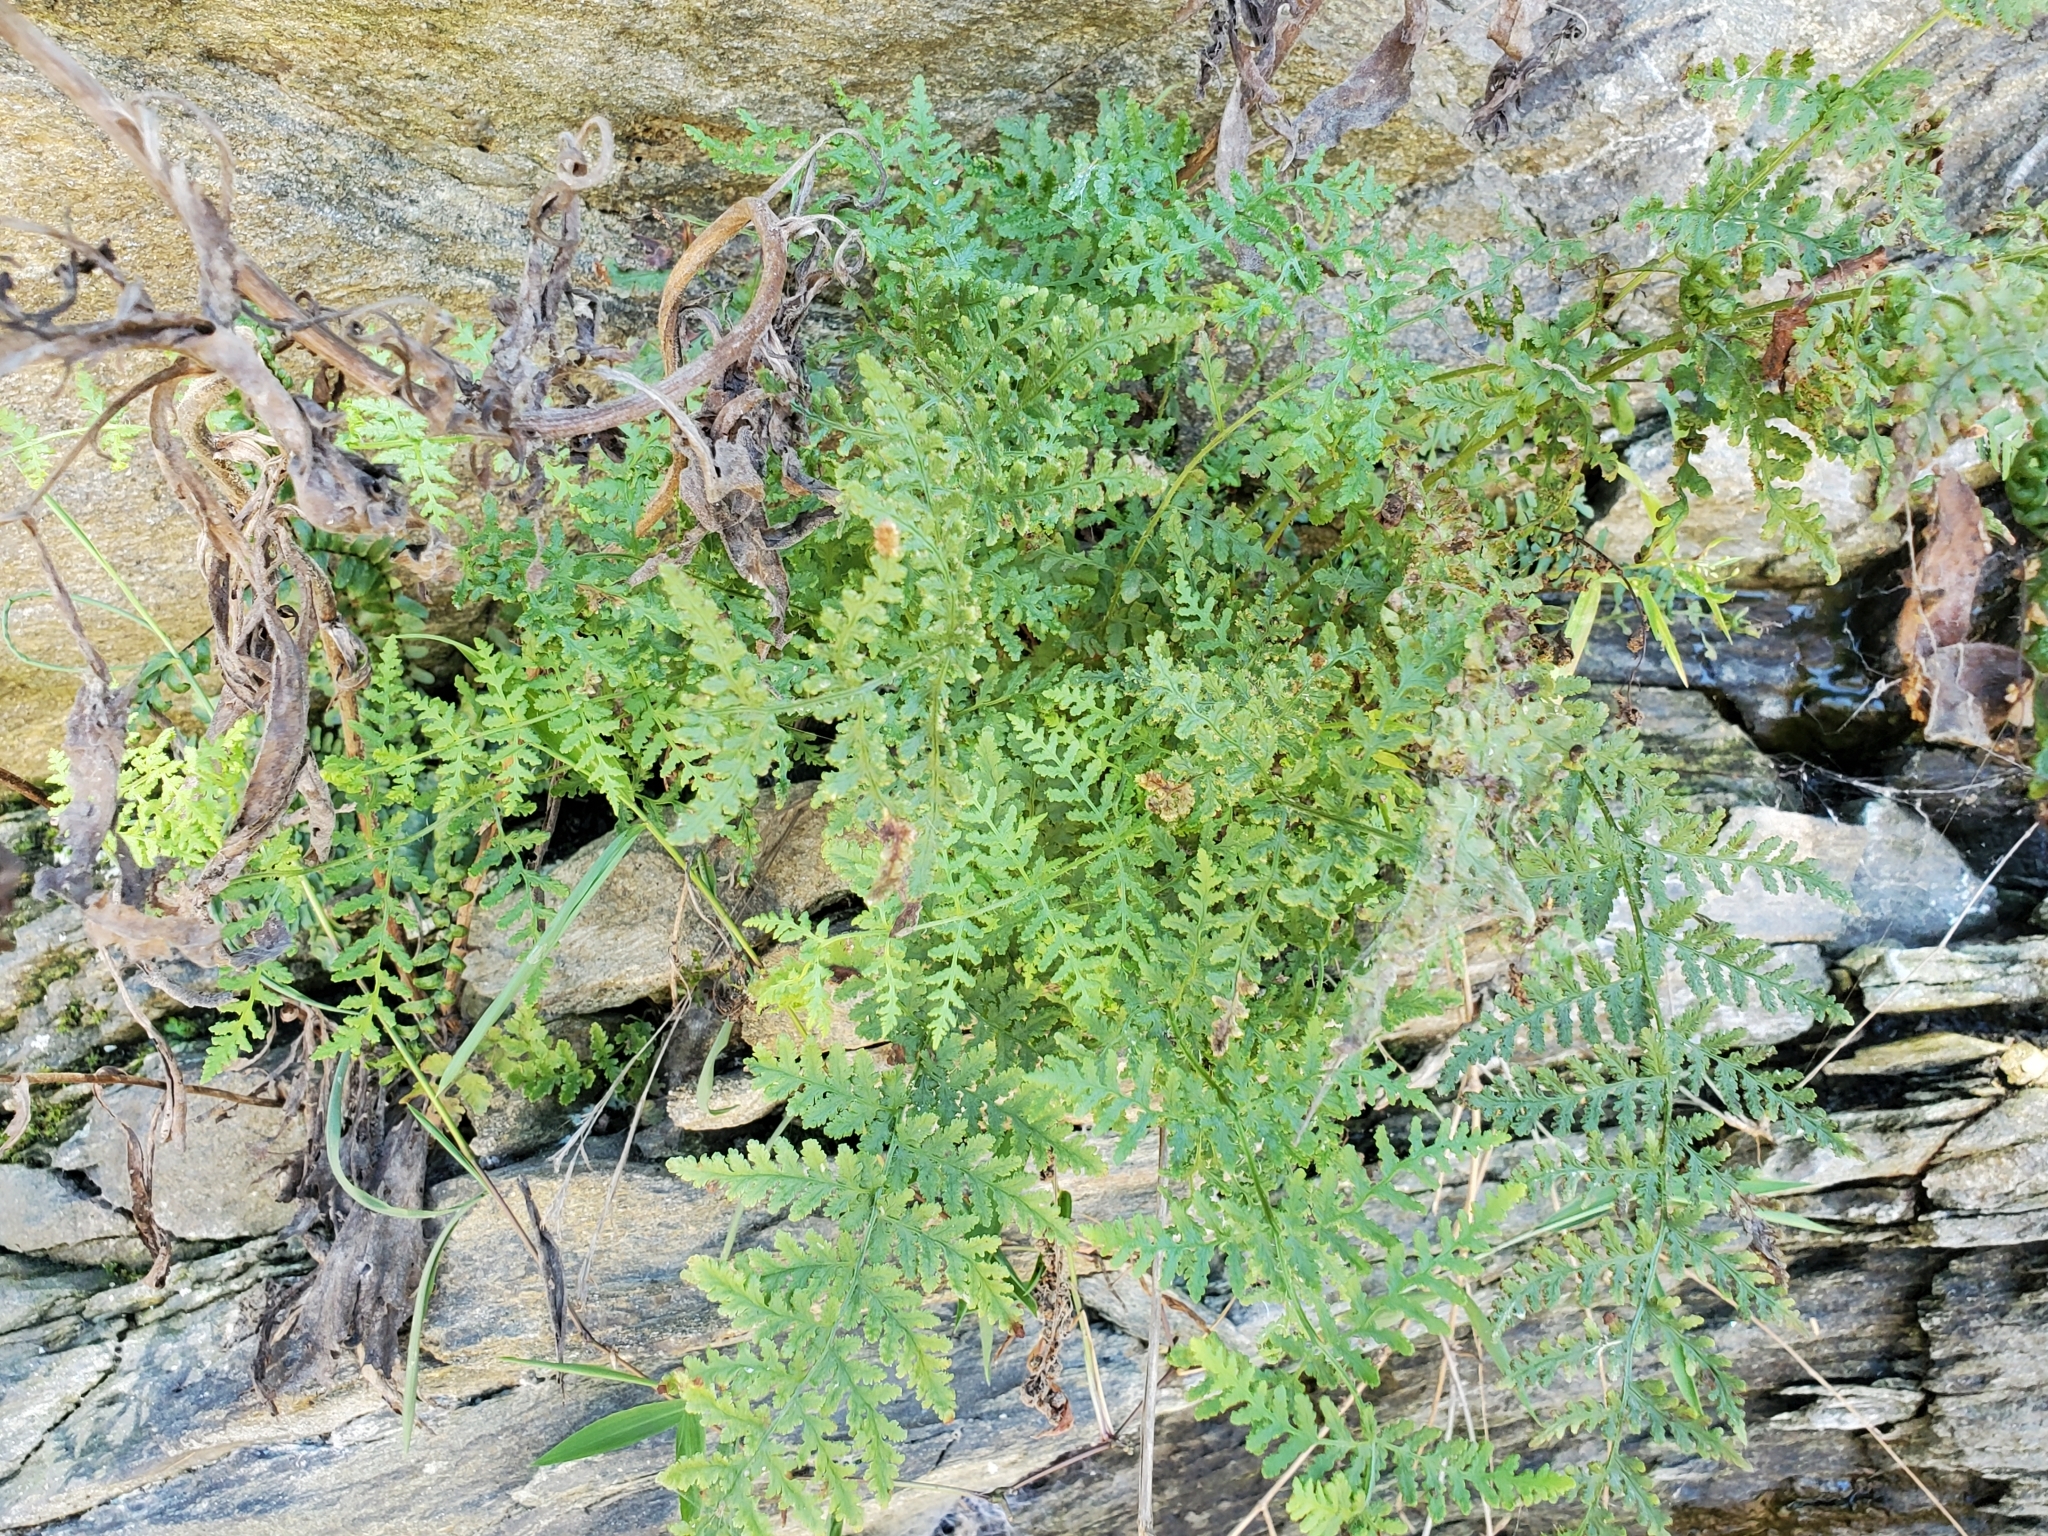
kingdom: Plantae
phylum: Tracheophyta
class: Polypodiopsida
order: Polypodiales
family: Woodsiaceae
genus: Physematium
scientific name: Physematium obtusum
